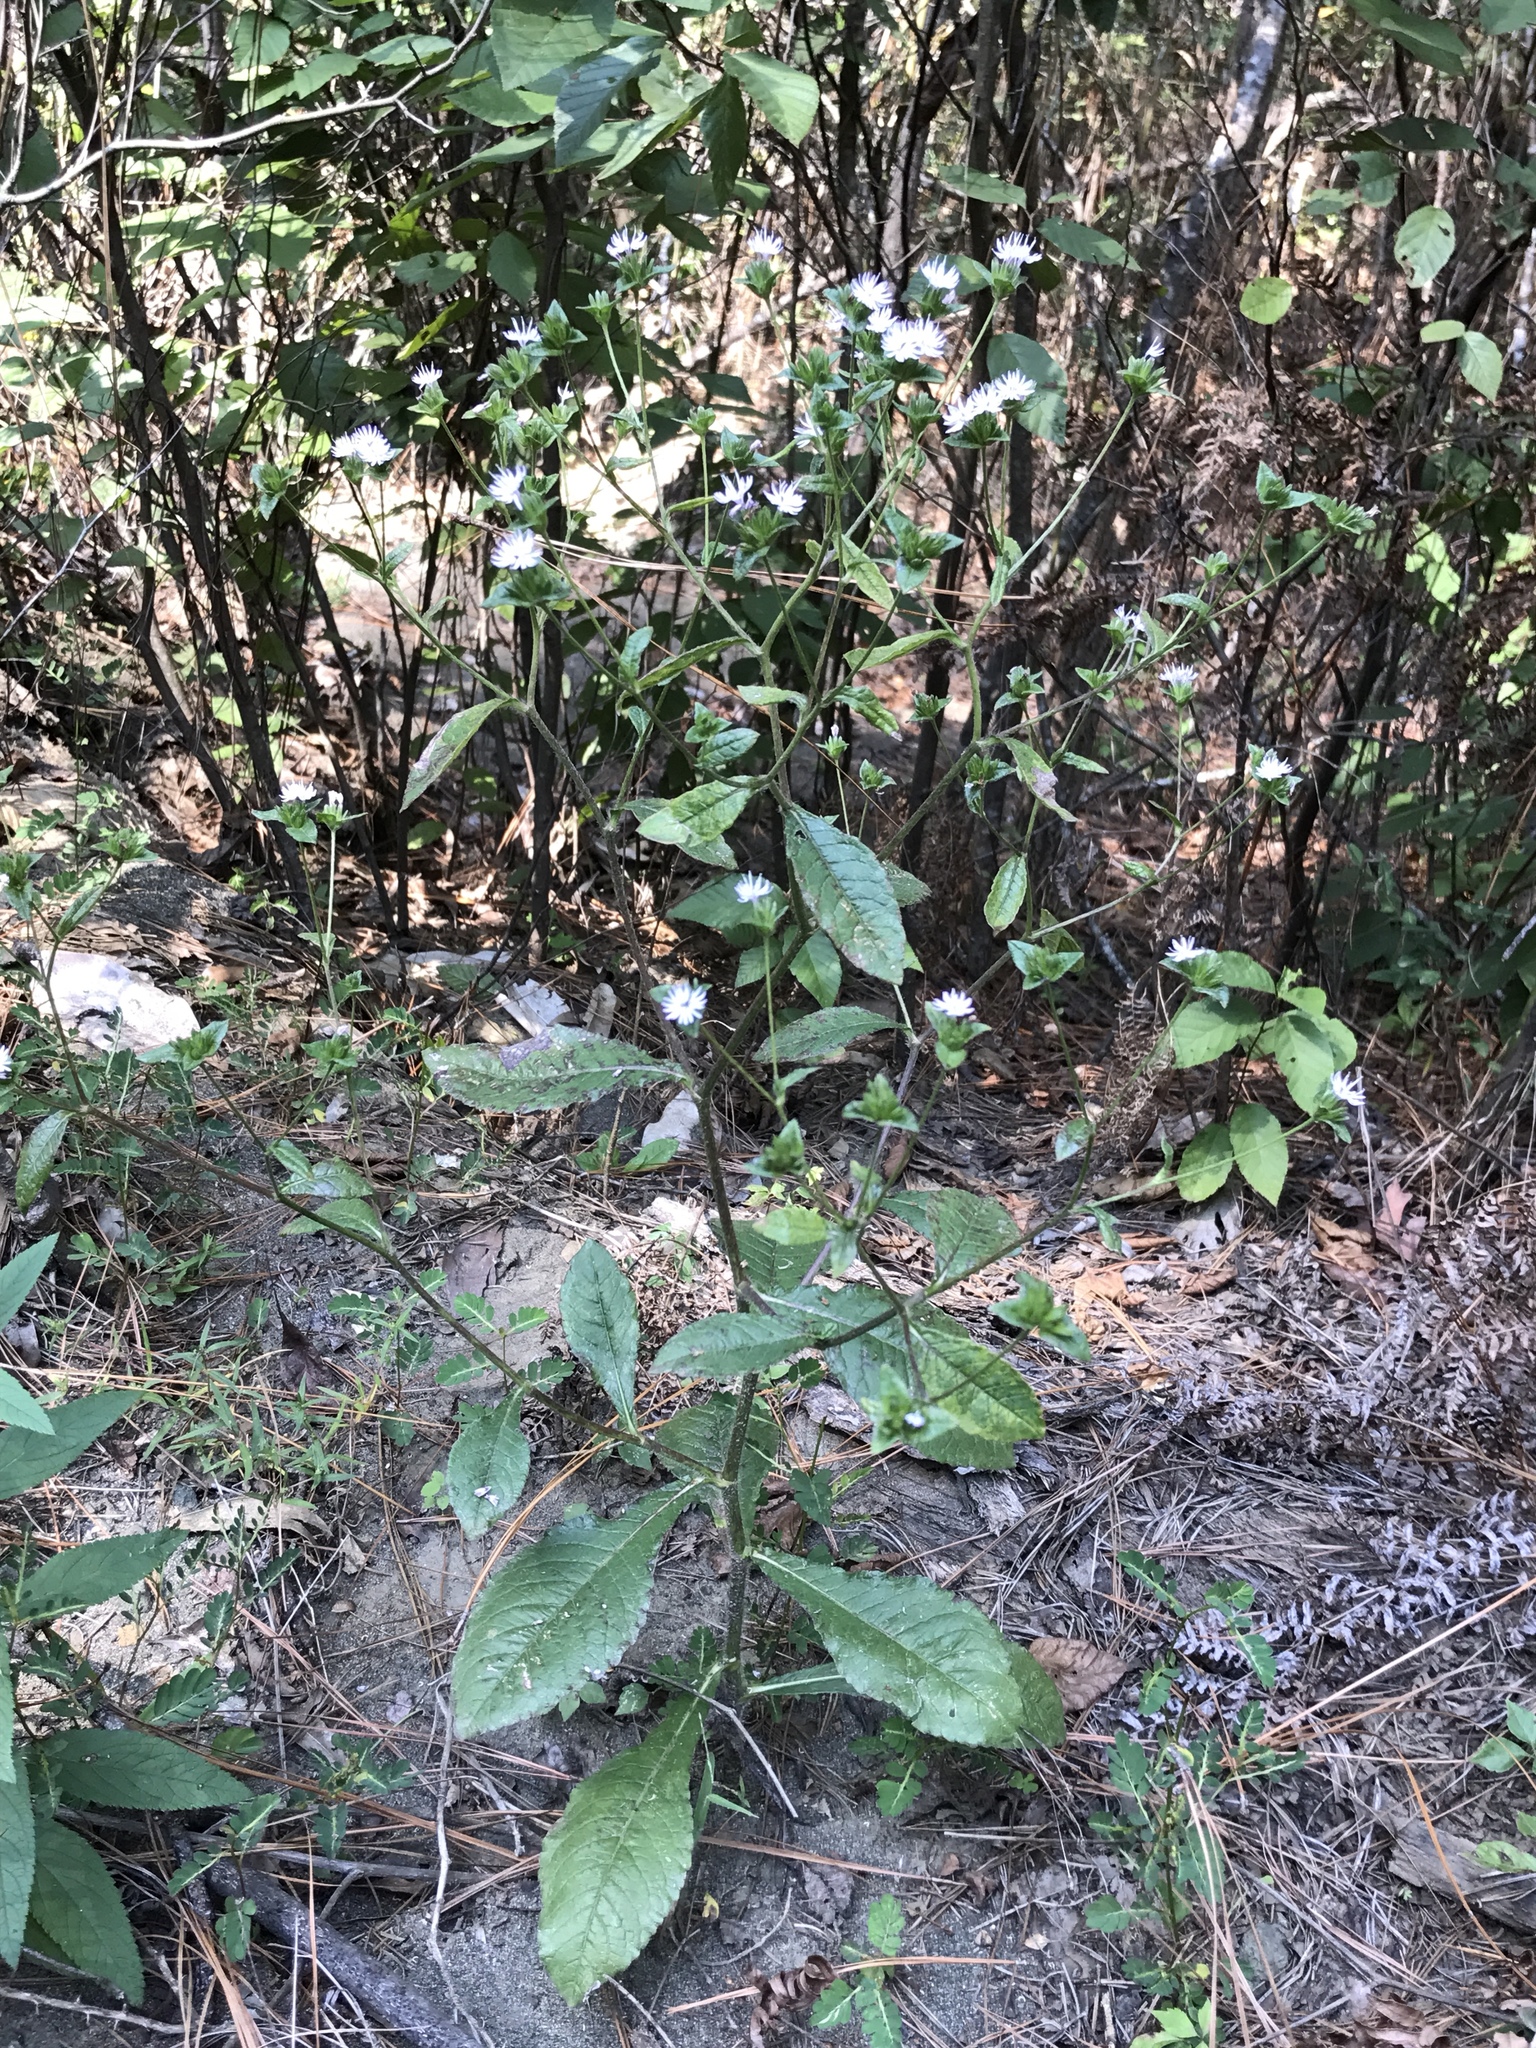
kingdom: Plantae
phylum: Tracheophyta
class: Magnoliopsida
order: Asterales
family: Asteraceae
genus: Elephantopus
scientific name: Elephantopus carolinianus
